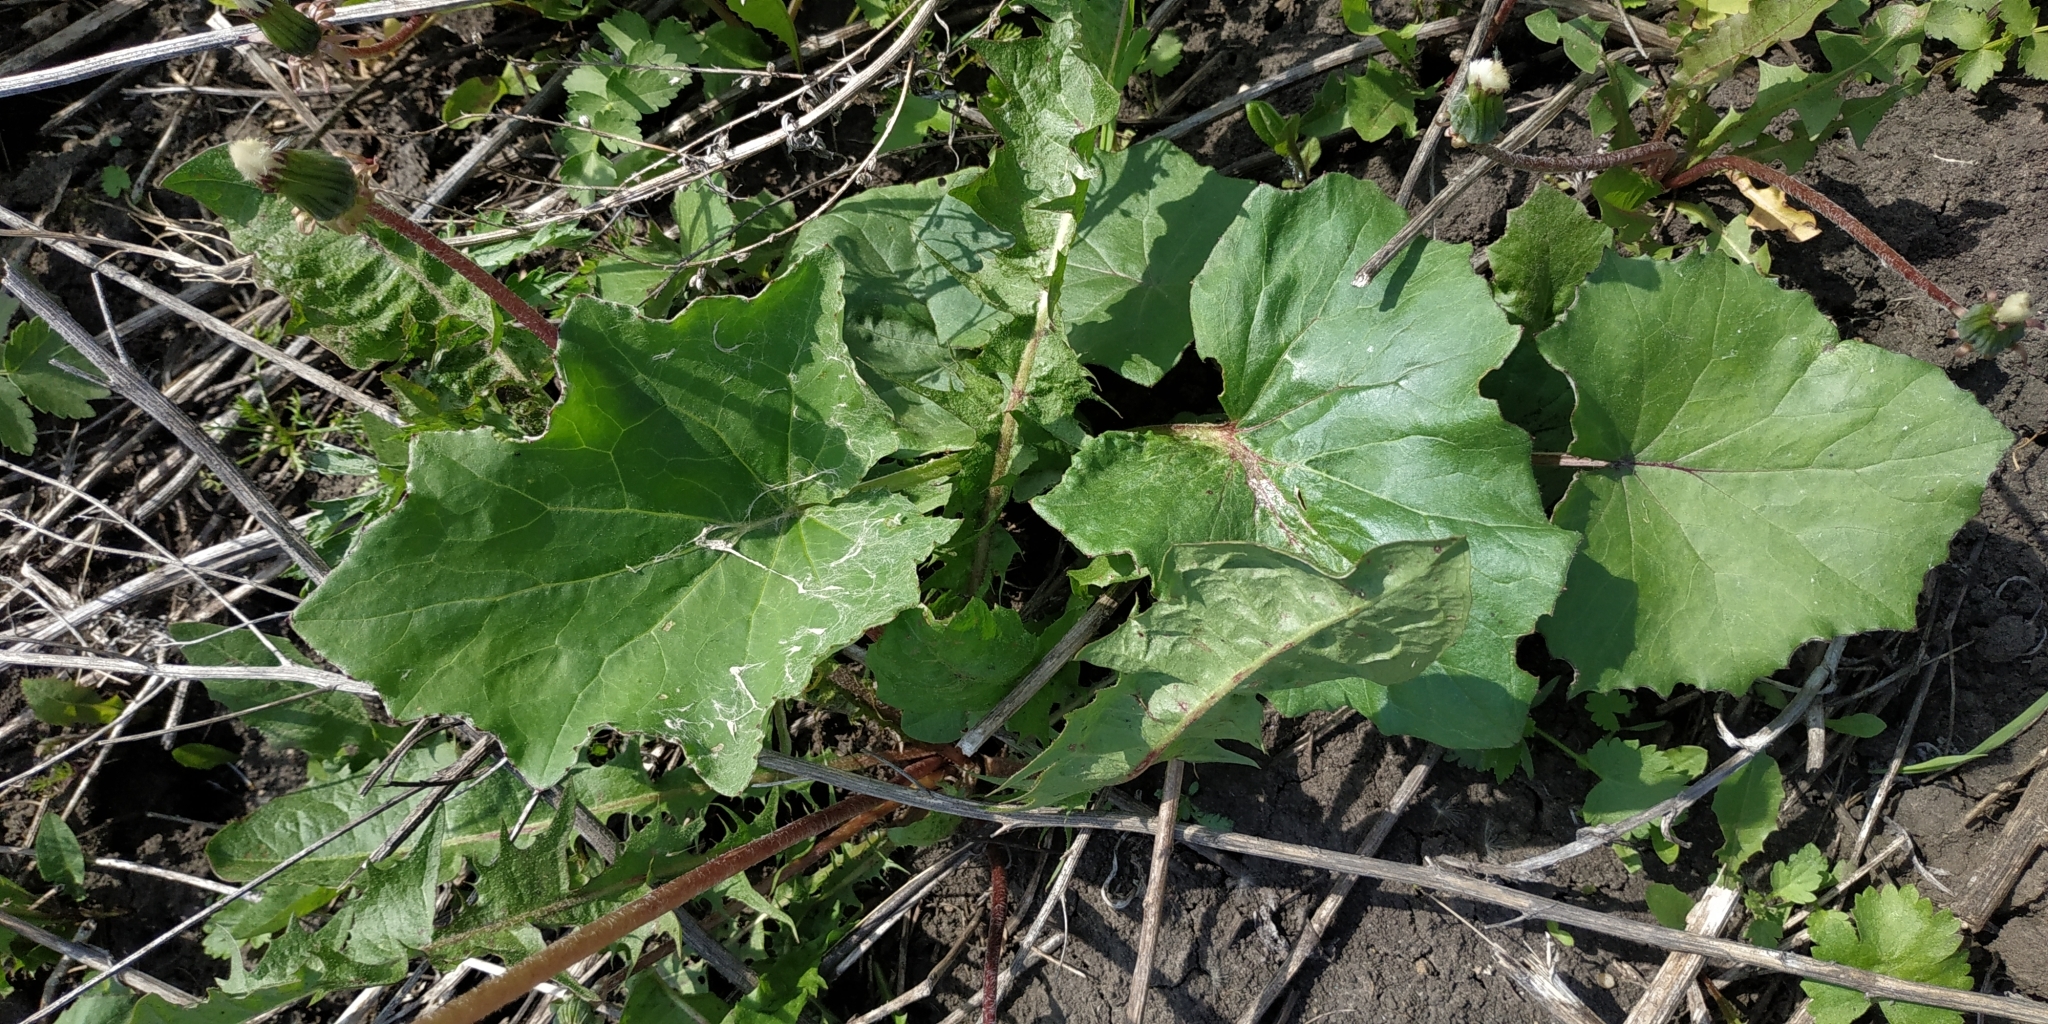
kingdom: Plantae
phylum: Tracheophyta
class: Magnoliopsida
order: Asterales
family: Asteraceae
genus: Tussilago
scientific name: Tussilago farfara
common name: Coltsfoot
